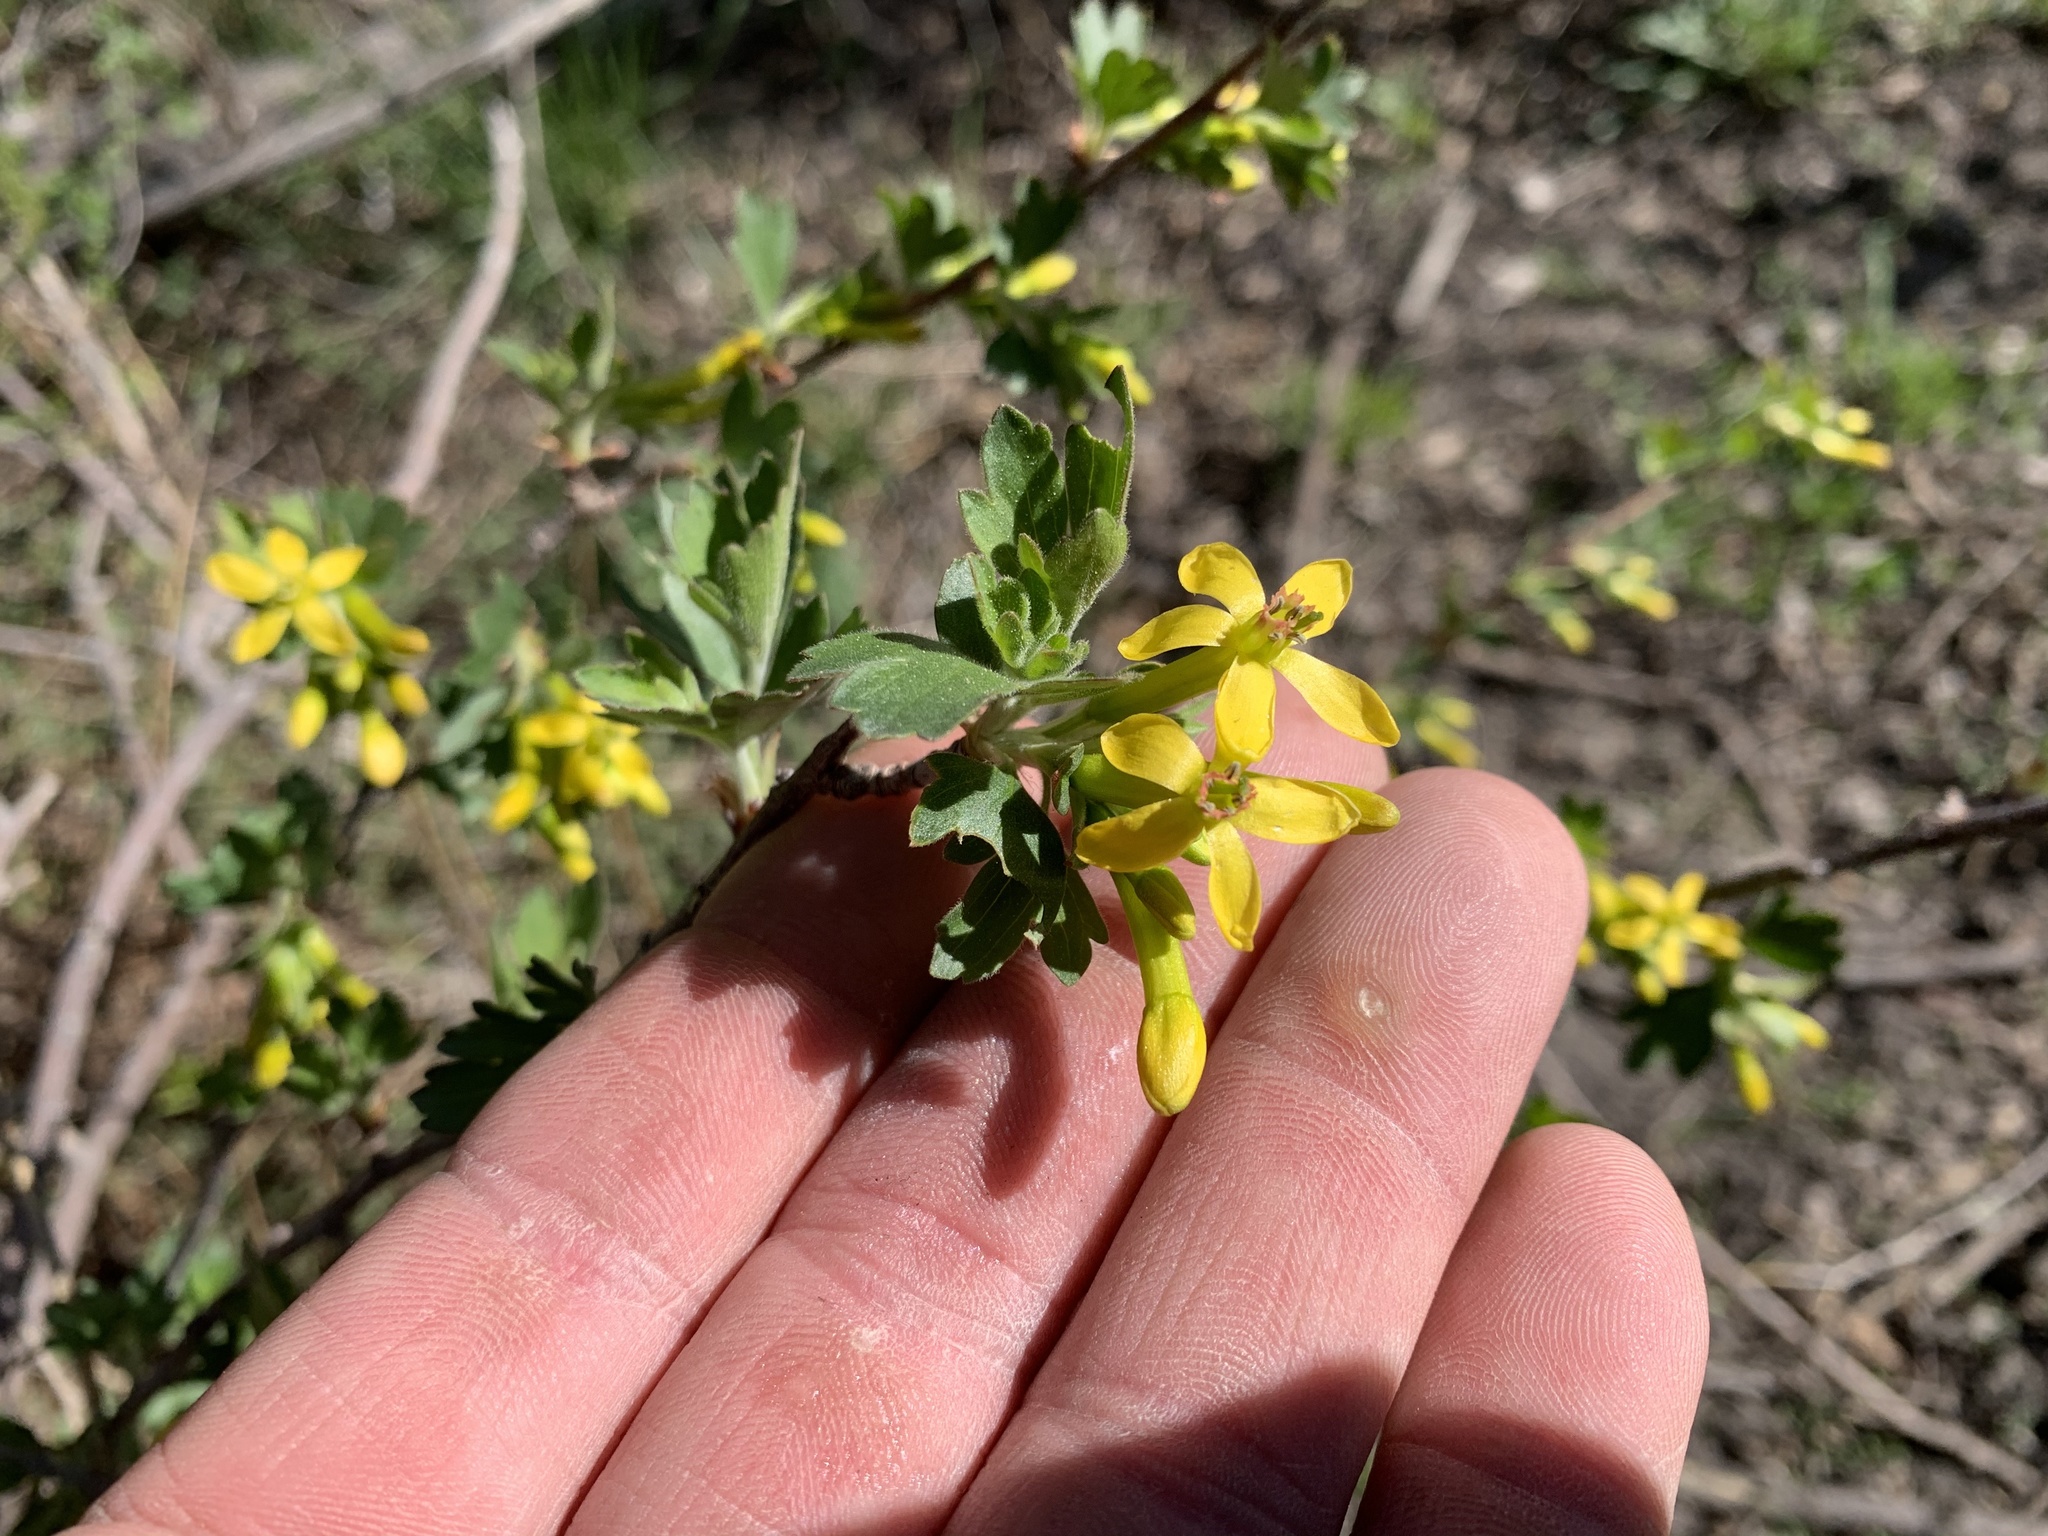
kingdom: Plantae
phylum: Tracheophyta
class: Magnoliopsida
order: Saxifragales
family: Grossulariaceae
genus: Ribes
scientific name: Ribes aureum
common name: Golden currant
